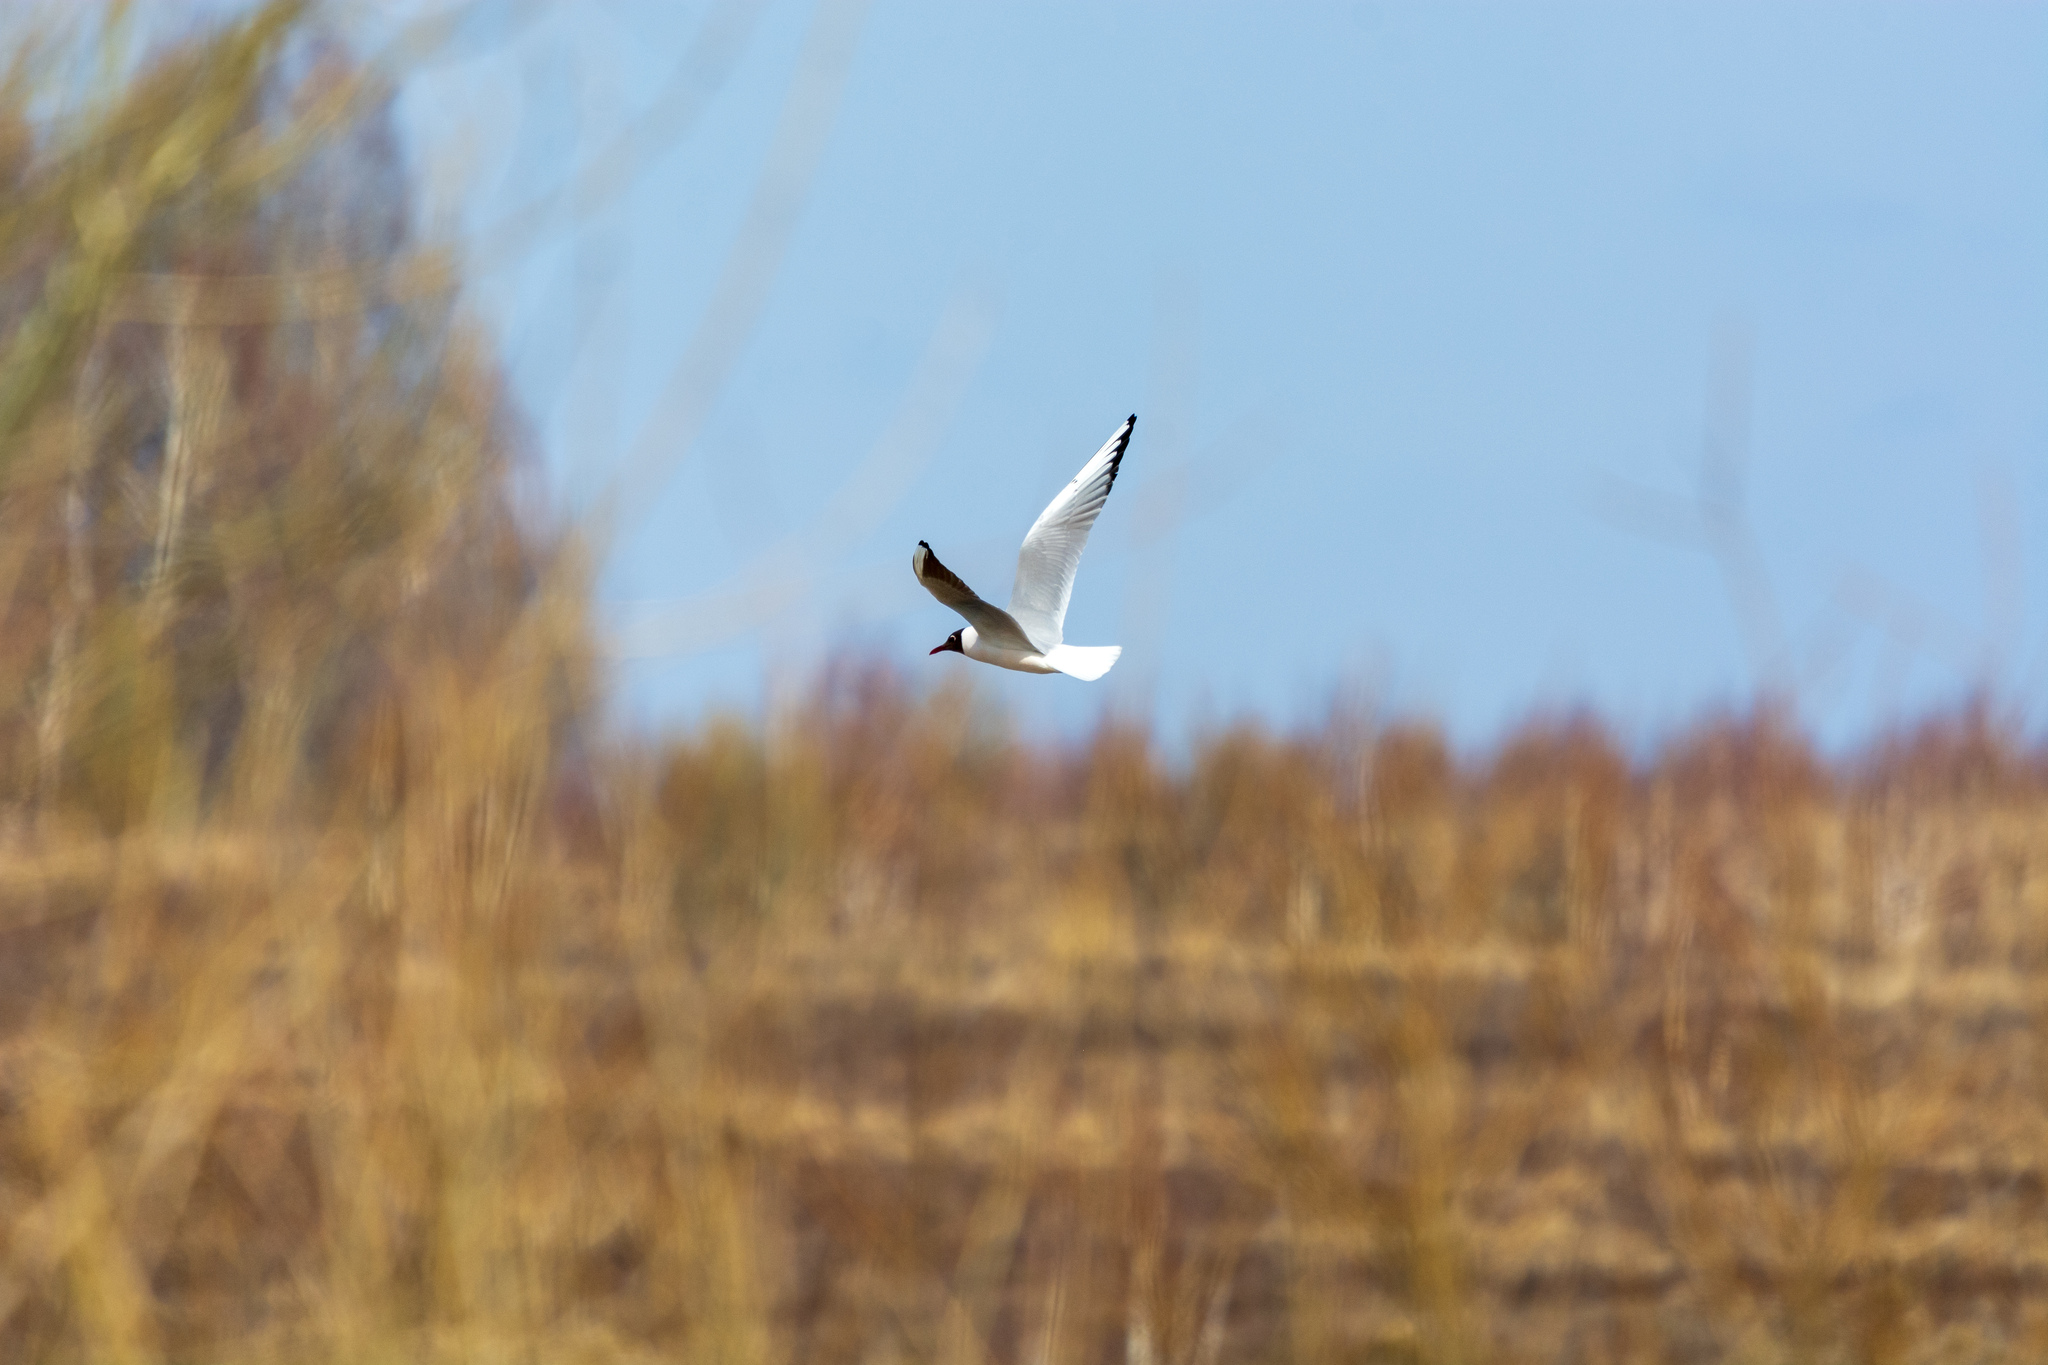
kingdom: Animalia
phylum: Chordata
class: Aves
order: Charadriiformes
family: Laridae
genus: Chroicocephalus
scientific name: Chroicocephalus ridibundus
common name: Black-headed gull
